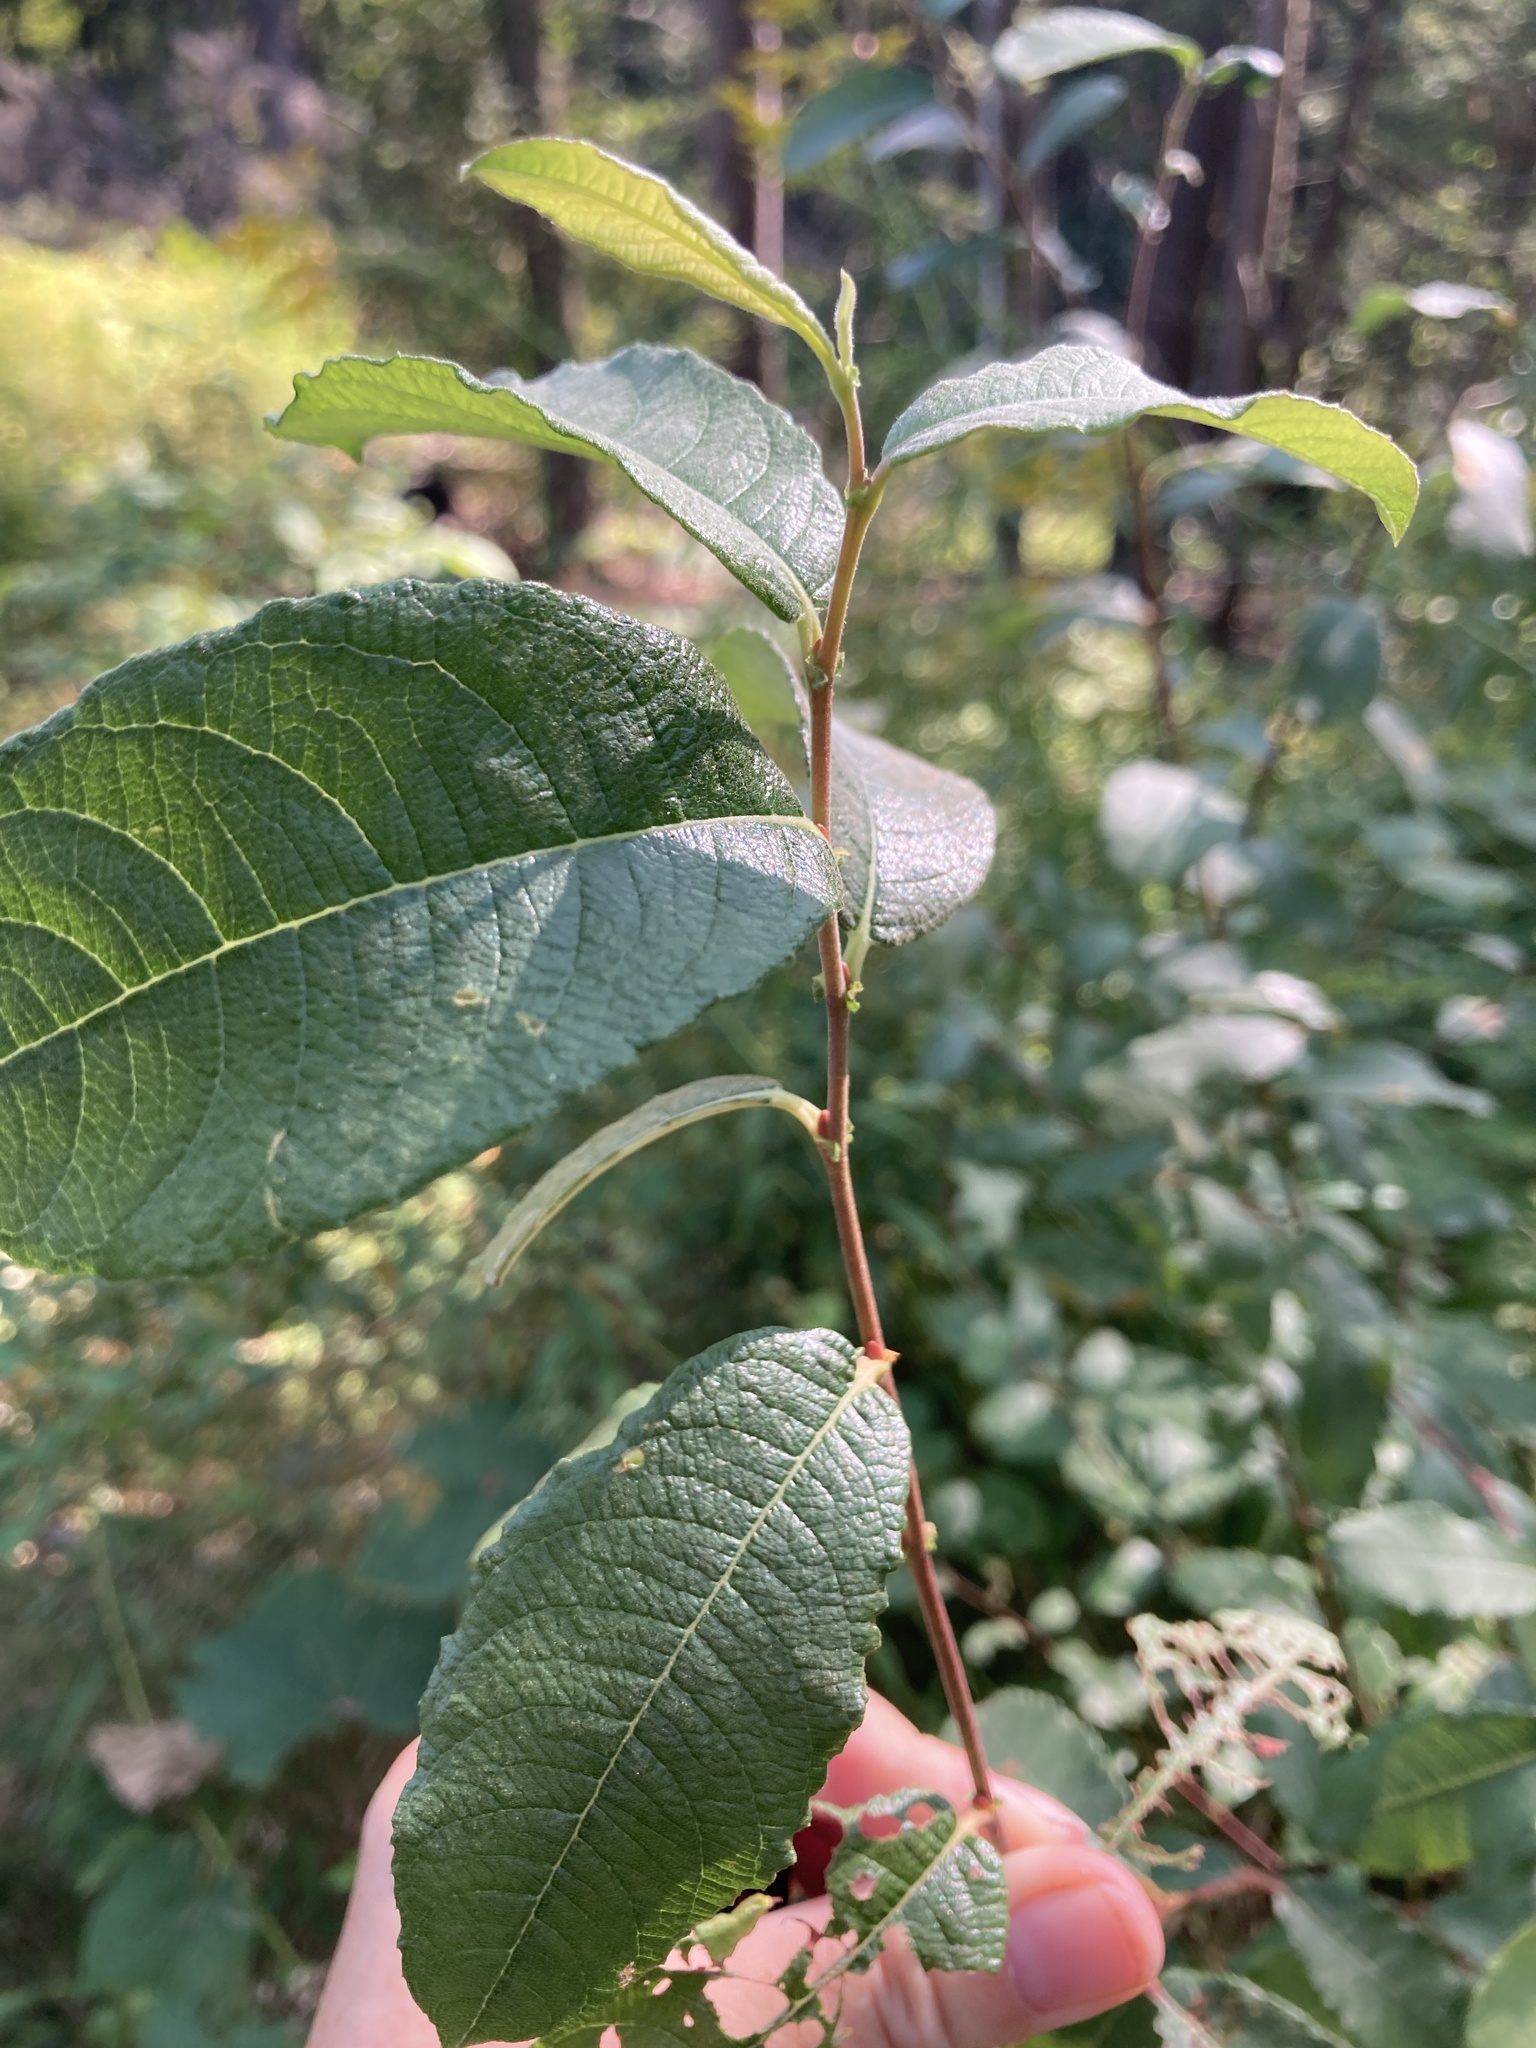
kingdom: Plantae
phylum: Tracheophyta
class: Magnoliopsida
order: Malpighiales
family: Salicaceae
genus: Salix
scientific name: Salix bebbiana
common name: Bebb's willow
